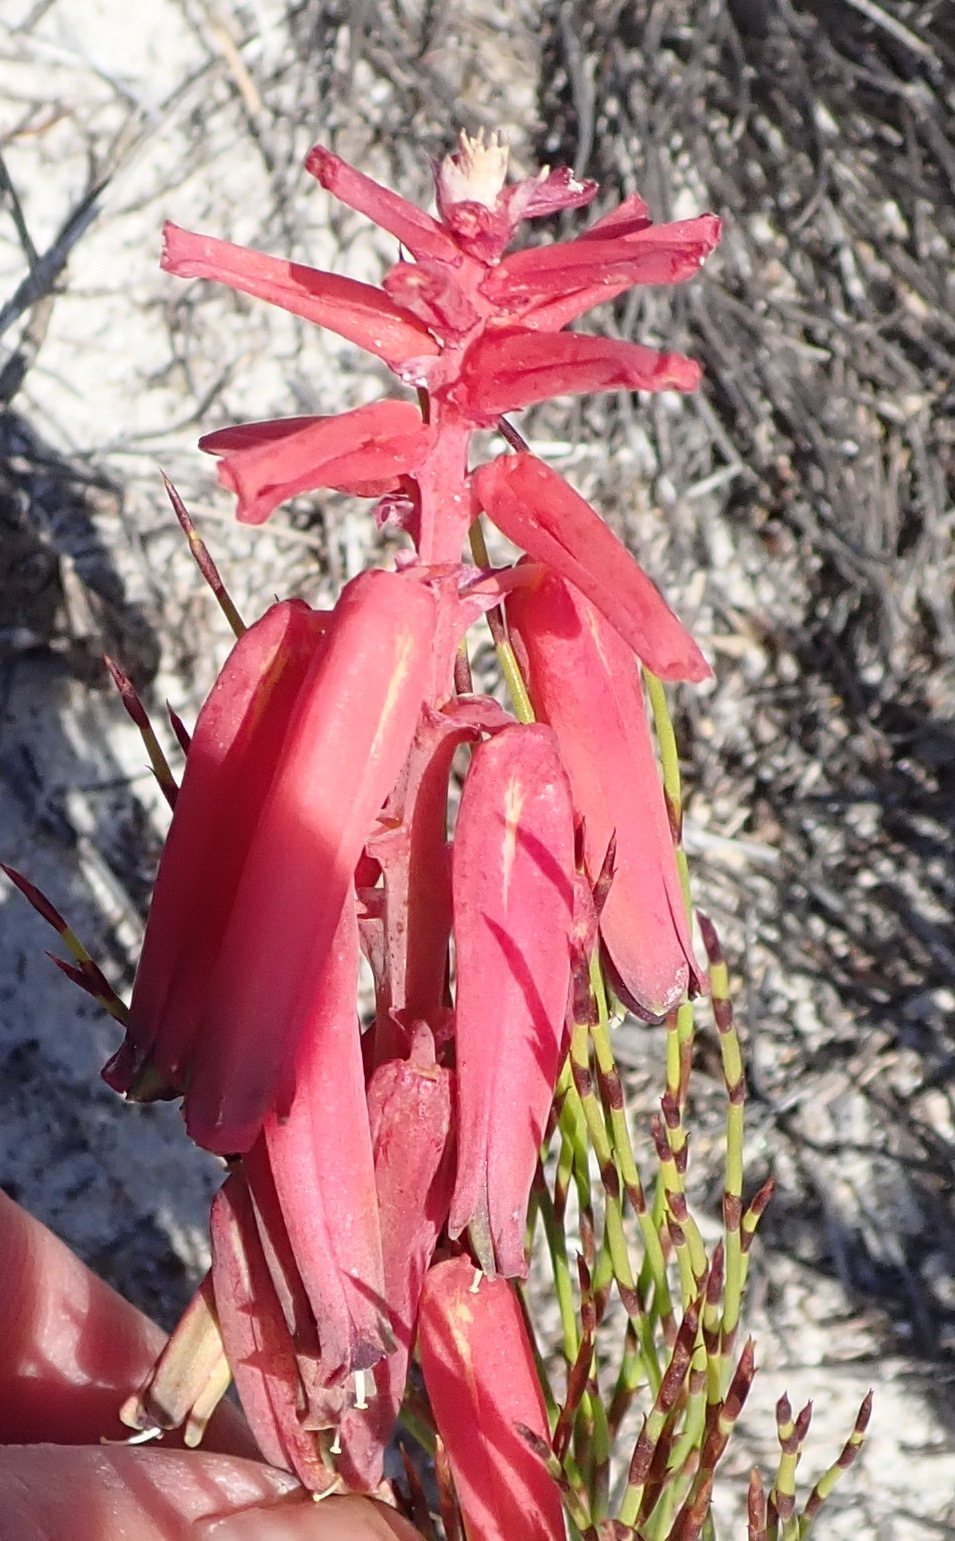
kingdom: Plantae
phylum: Tracheophyta
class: Liliopsida
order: Asparagales
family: Asparagaceae
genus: Lachenalia
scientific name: Lachenalia bulbifera
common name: Red lachenalia
